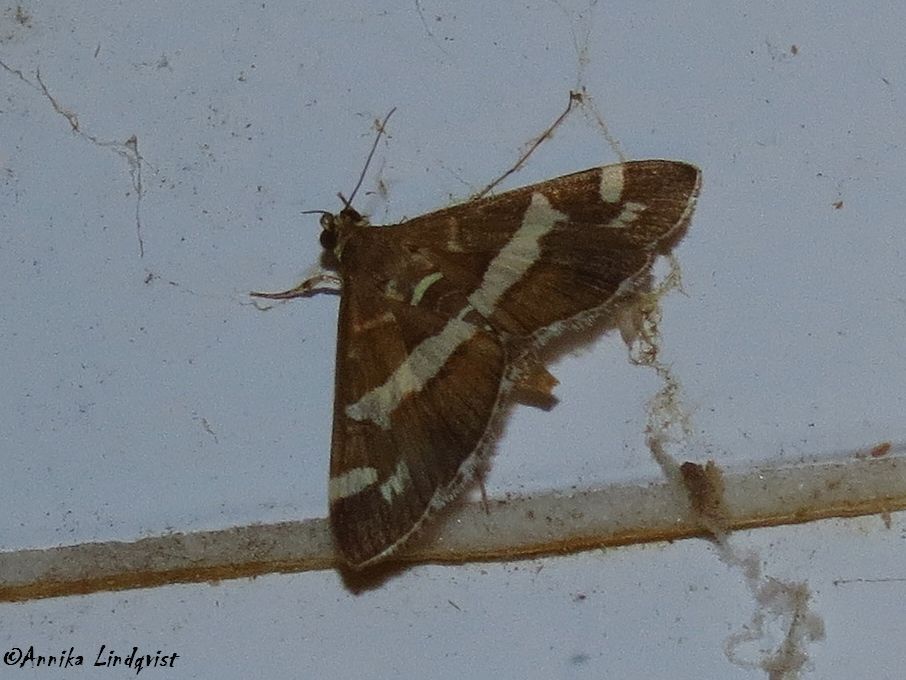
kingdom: Animalia
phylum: Arthropoda
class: Insecta
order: Lepidoptera
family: Crambidae
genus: Spoladea
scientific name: Spoladea recurvalis
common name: Beet webworm moth
